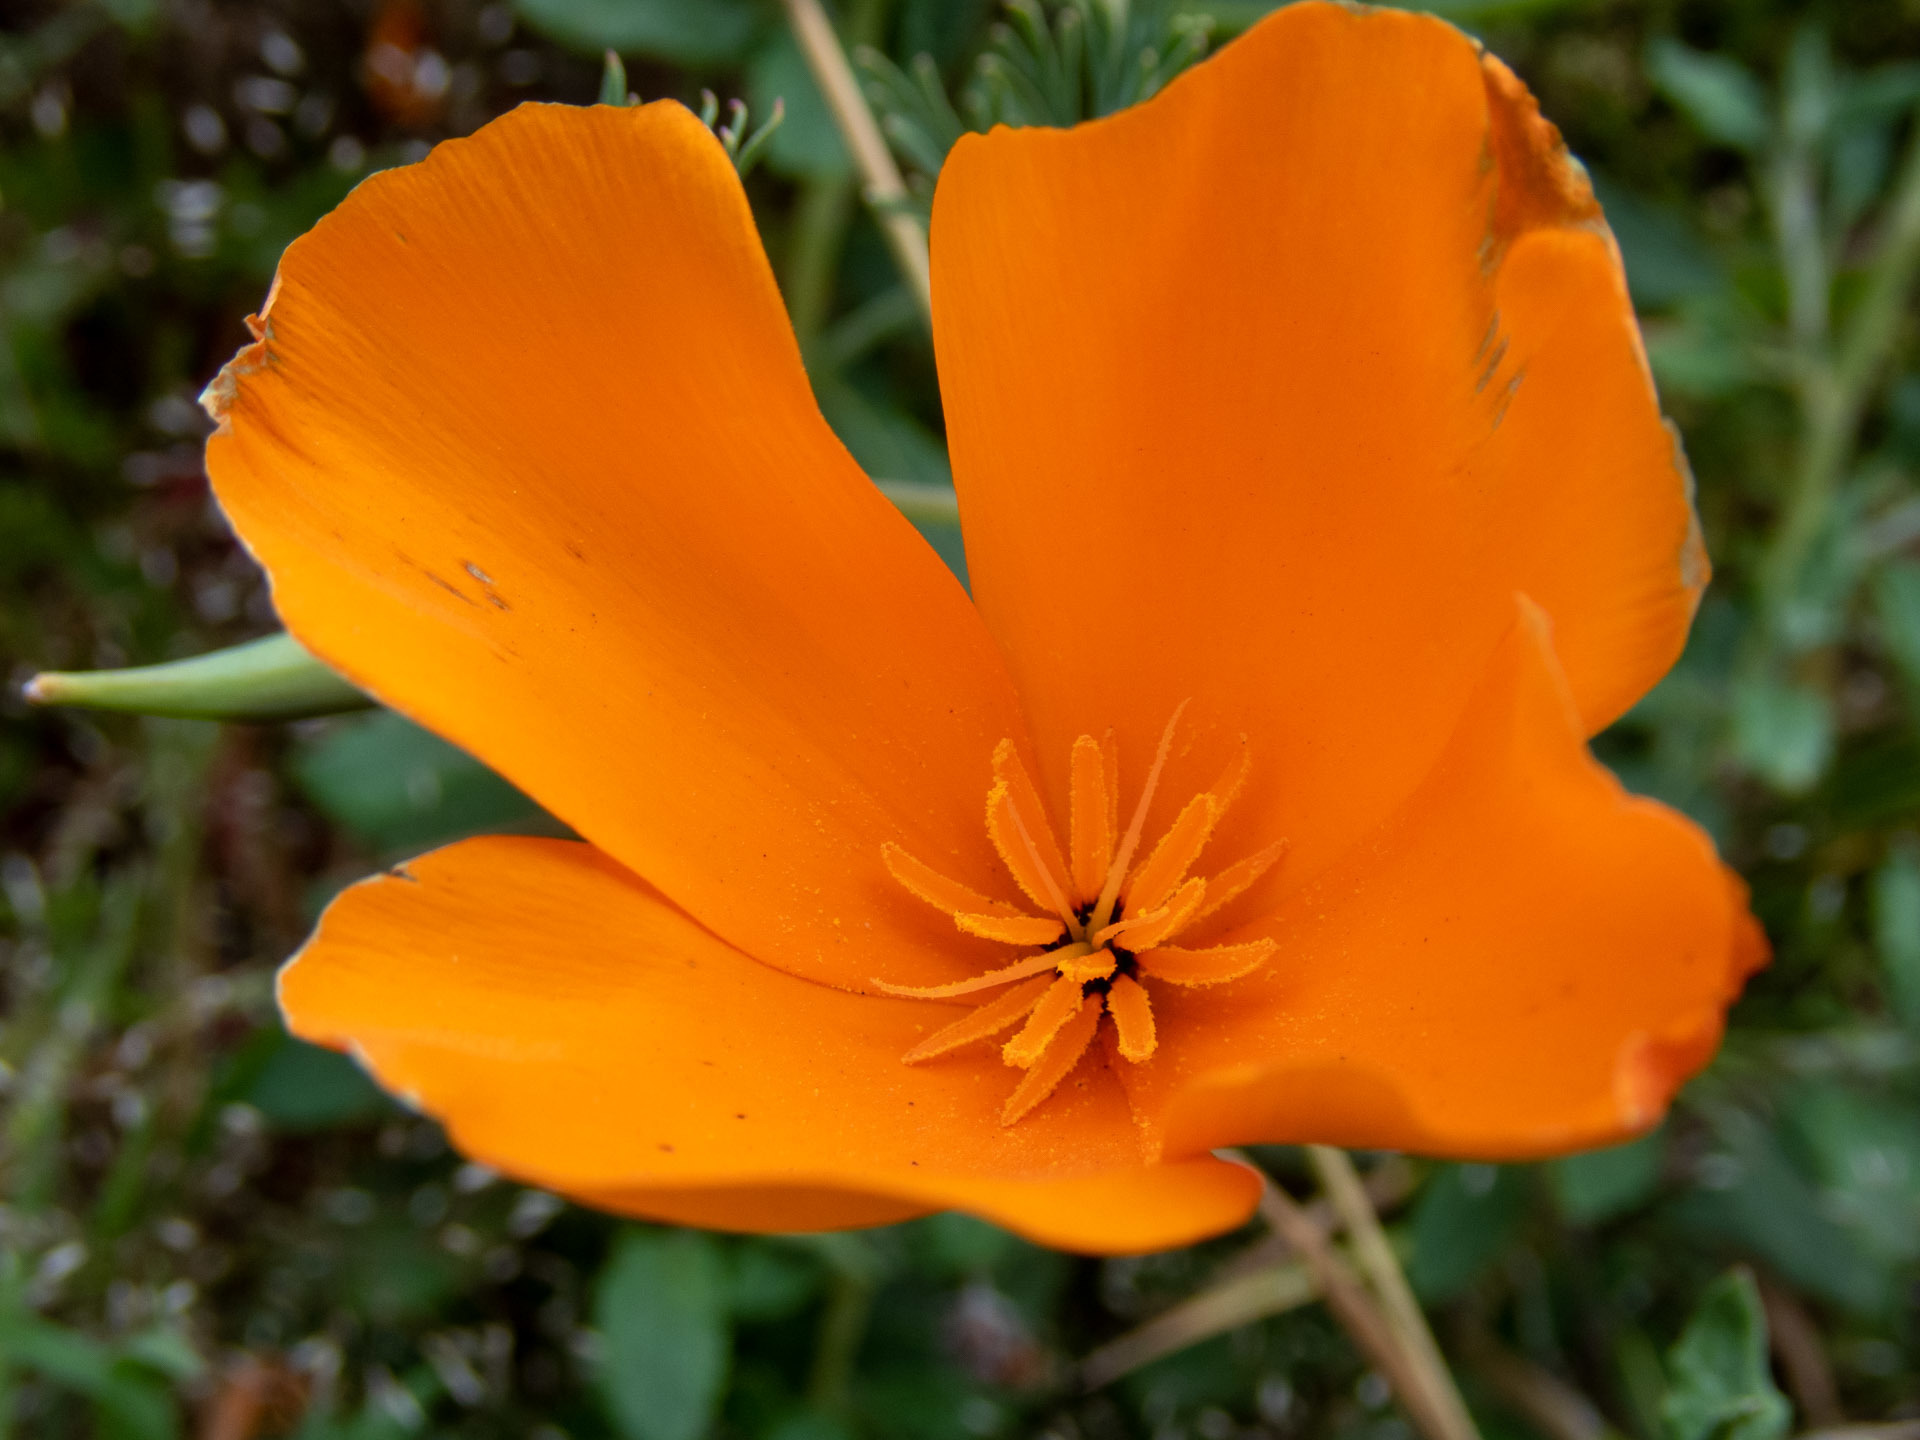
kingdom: Plantae
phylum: Tracheophyta
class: Magnoliopsida
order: Ranunculales
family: Papaveraceae
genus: Eschscholzia
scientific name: Eschscholzia californica
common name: California poppy
